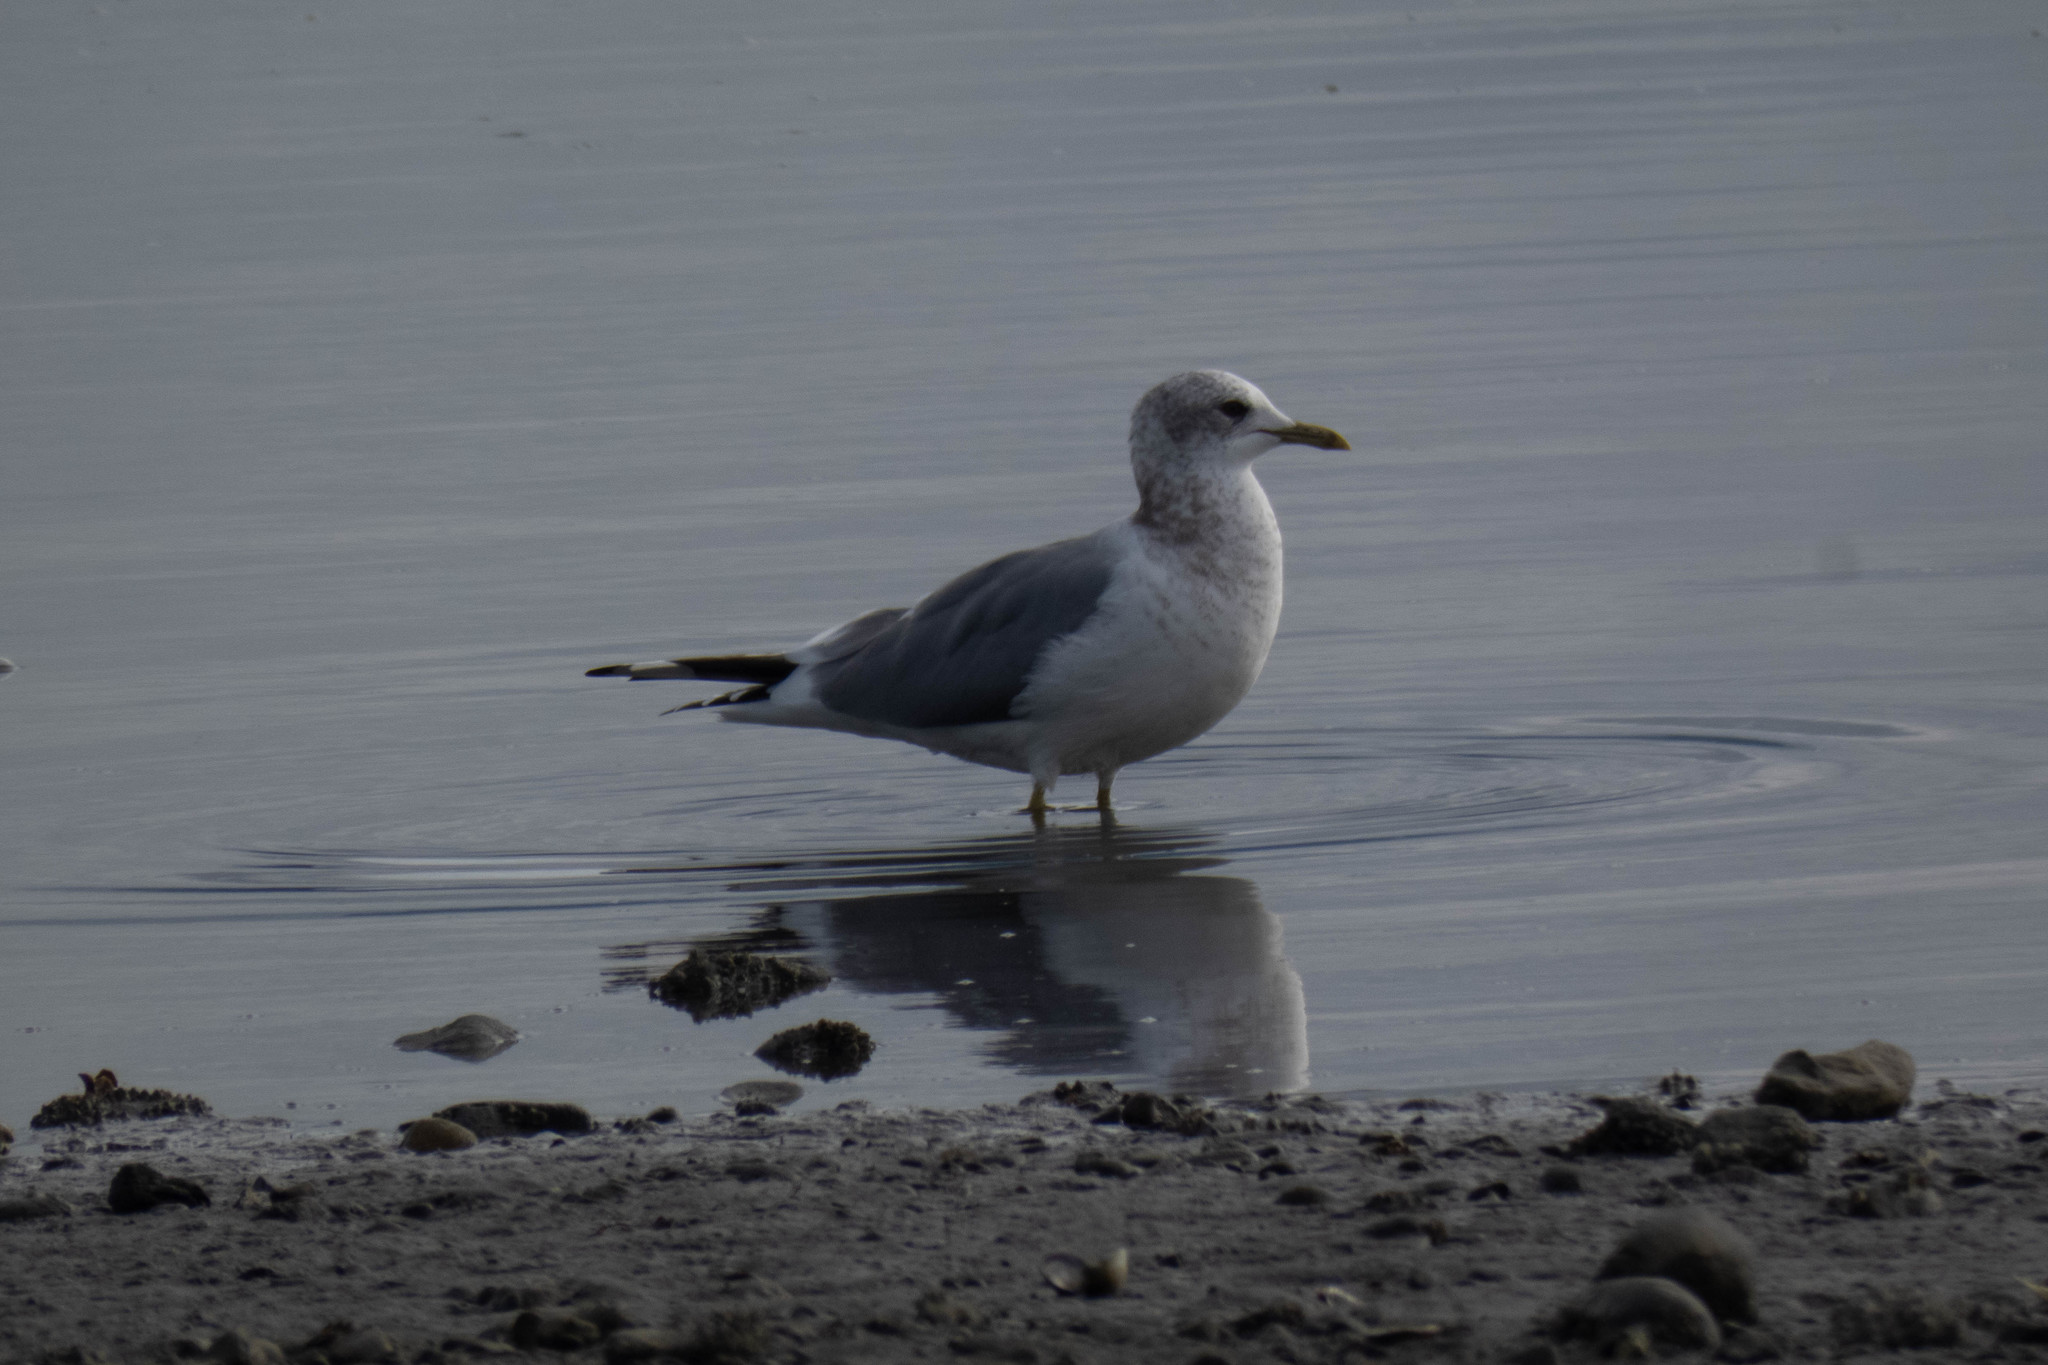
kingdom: Animalia
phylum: Chordata
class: Aves
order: Charadriiformes
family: Laridae
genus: Larus
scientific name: Larus brachyrhynchus
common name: Short-billed gull
